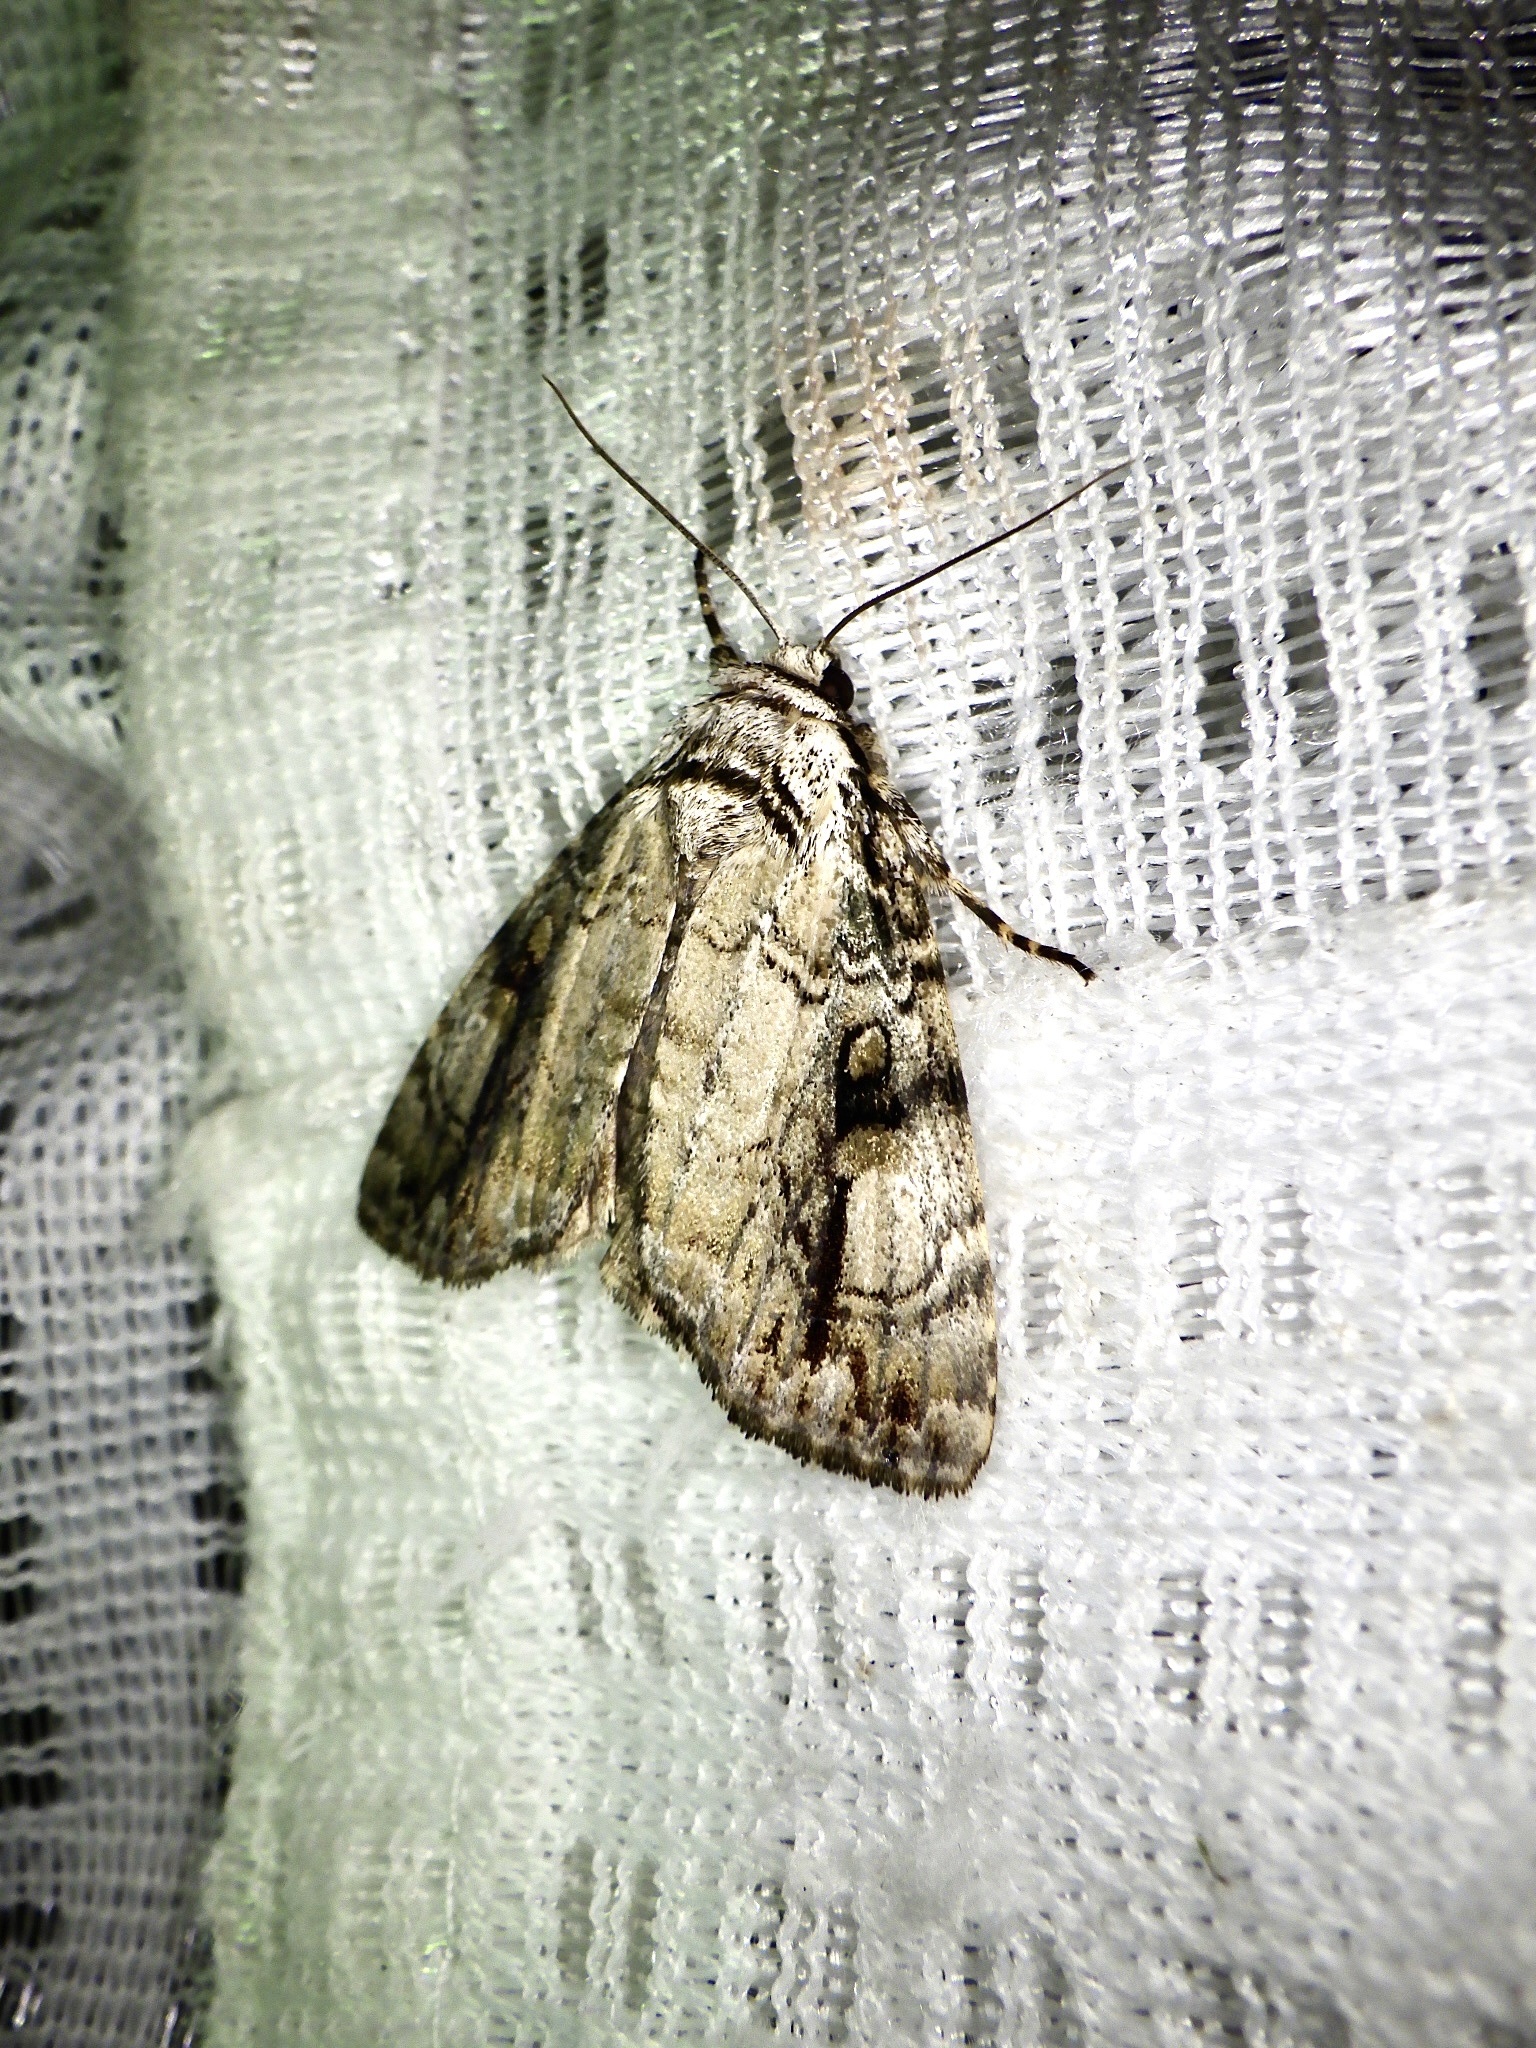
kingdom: Animalia
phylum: Arthropoda
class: Insecta
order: Lepidoptera
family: Noctuidae
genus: Anacronicta
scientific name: Anacronicta nitida
